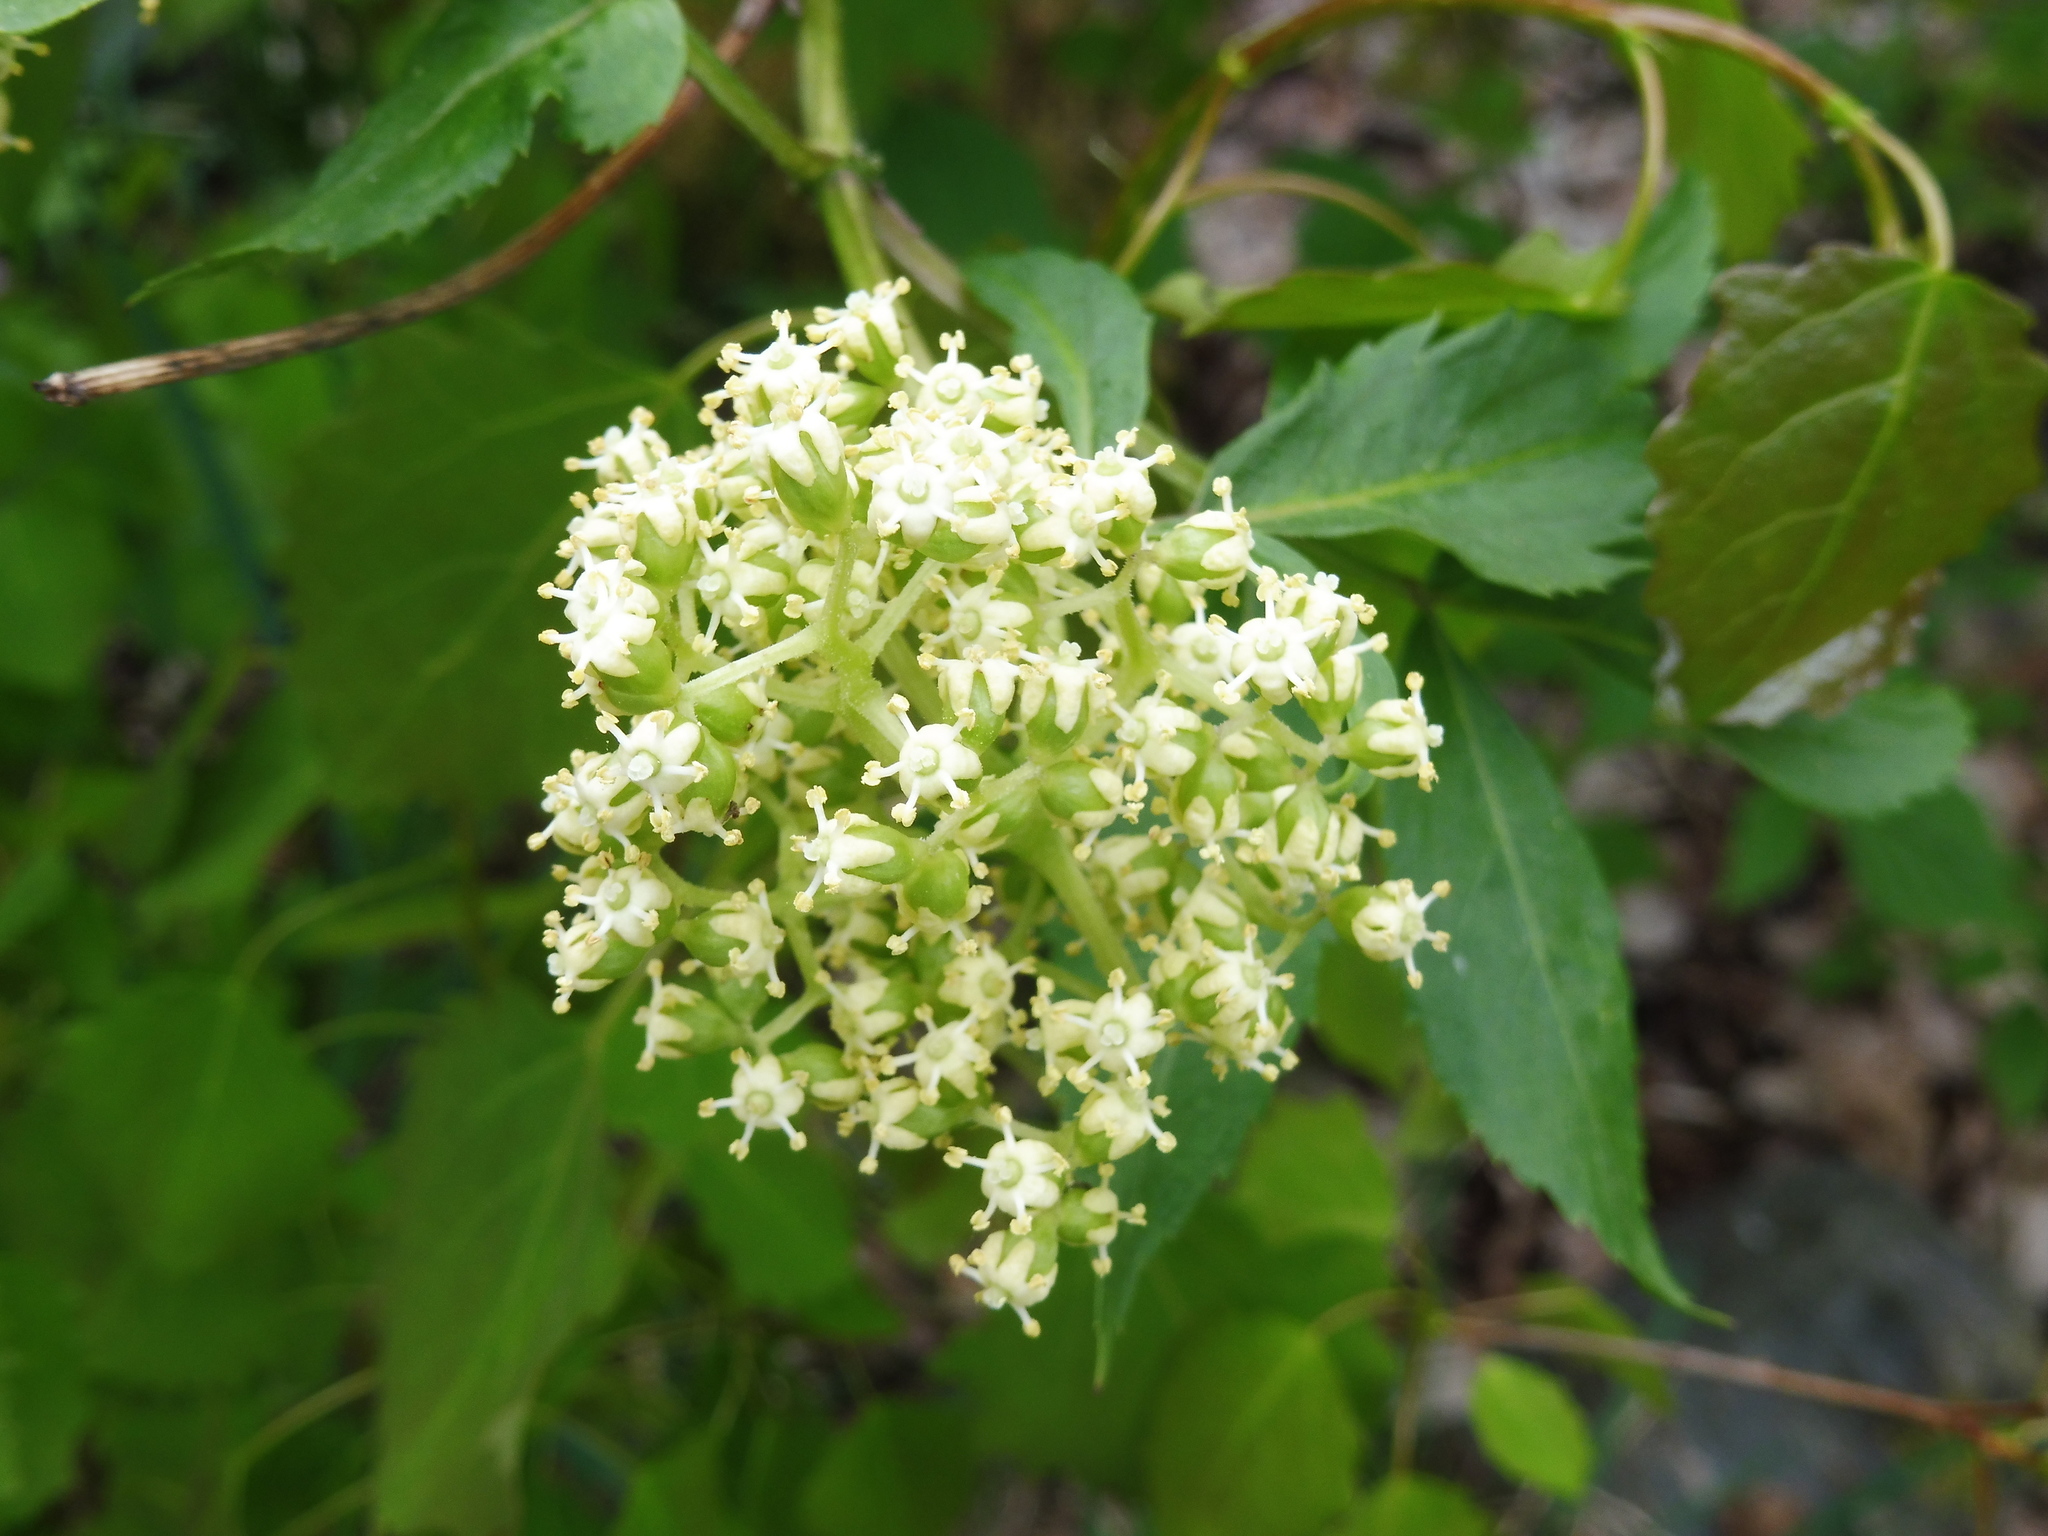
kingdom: Plantae
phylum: Tracheophyta
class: Magnoliopsida
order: Dipsacales
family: Viburnaceae
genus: Sambucus
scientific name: Sambucus racemosa
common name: Red-berried elder
